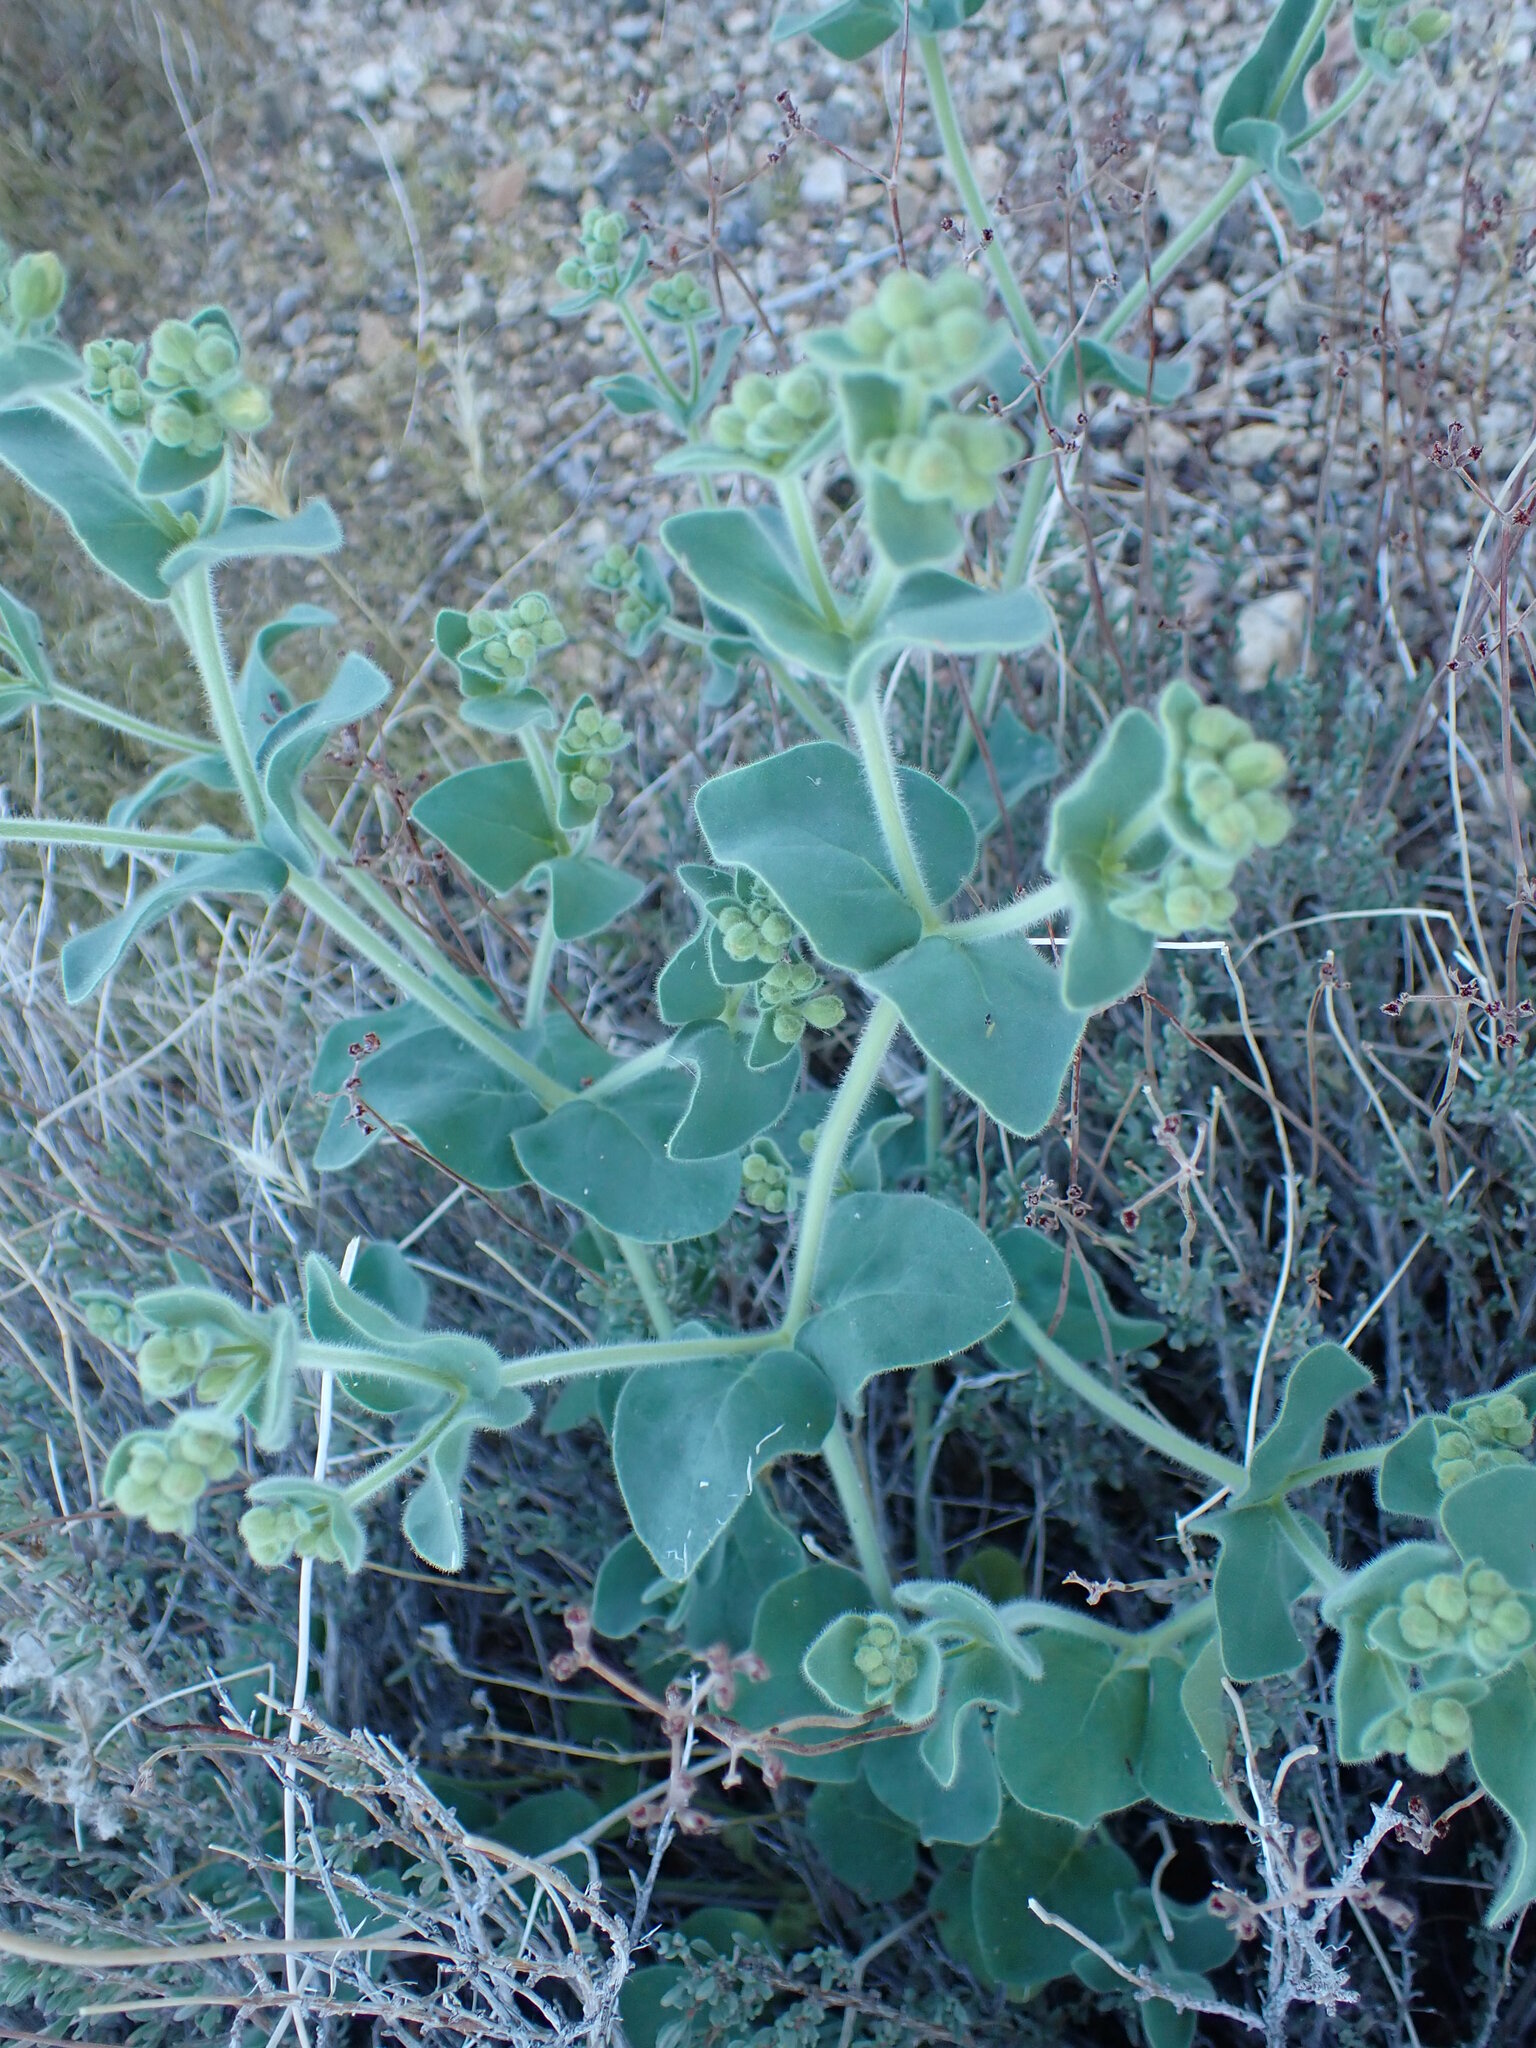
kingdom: Plantae
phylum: Tracheophyta
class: Magnoliopsida
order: Caryophyllales
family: Nyctaginaceae
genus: Mirabilis
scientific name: Mirabilis laevis
